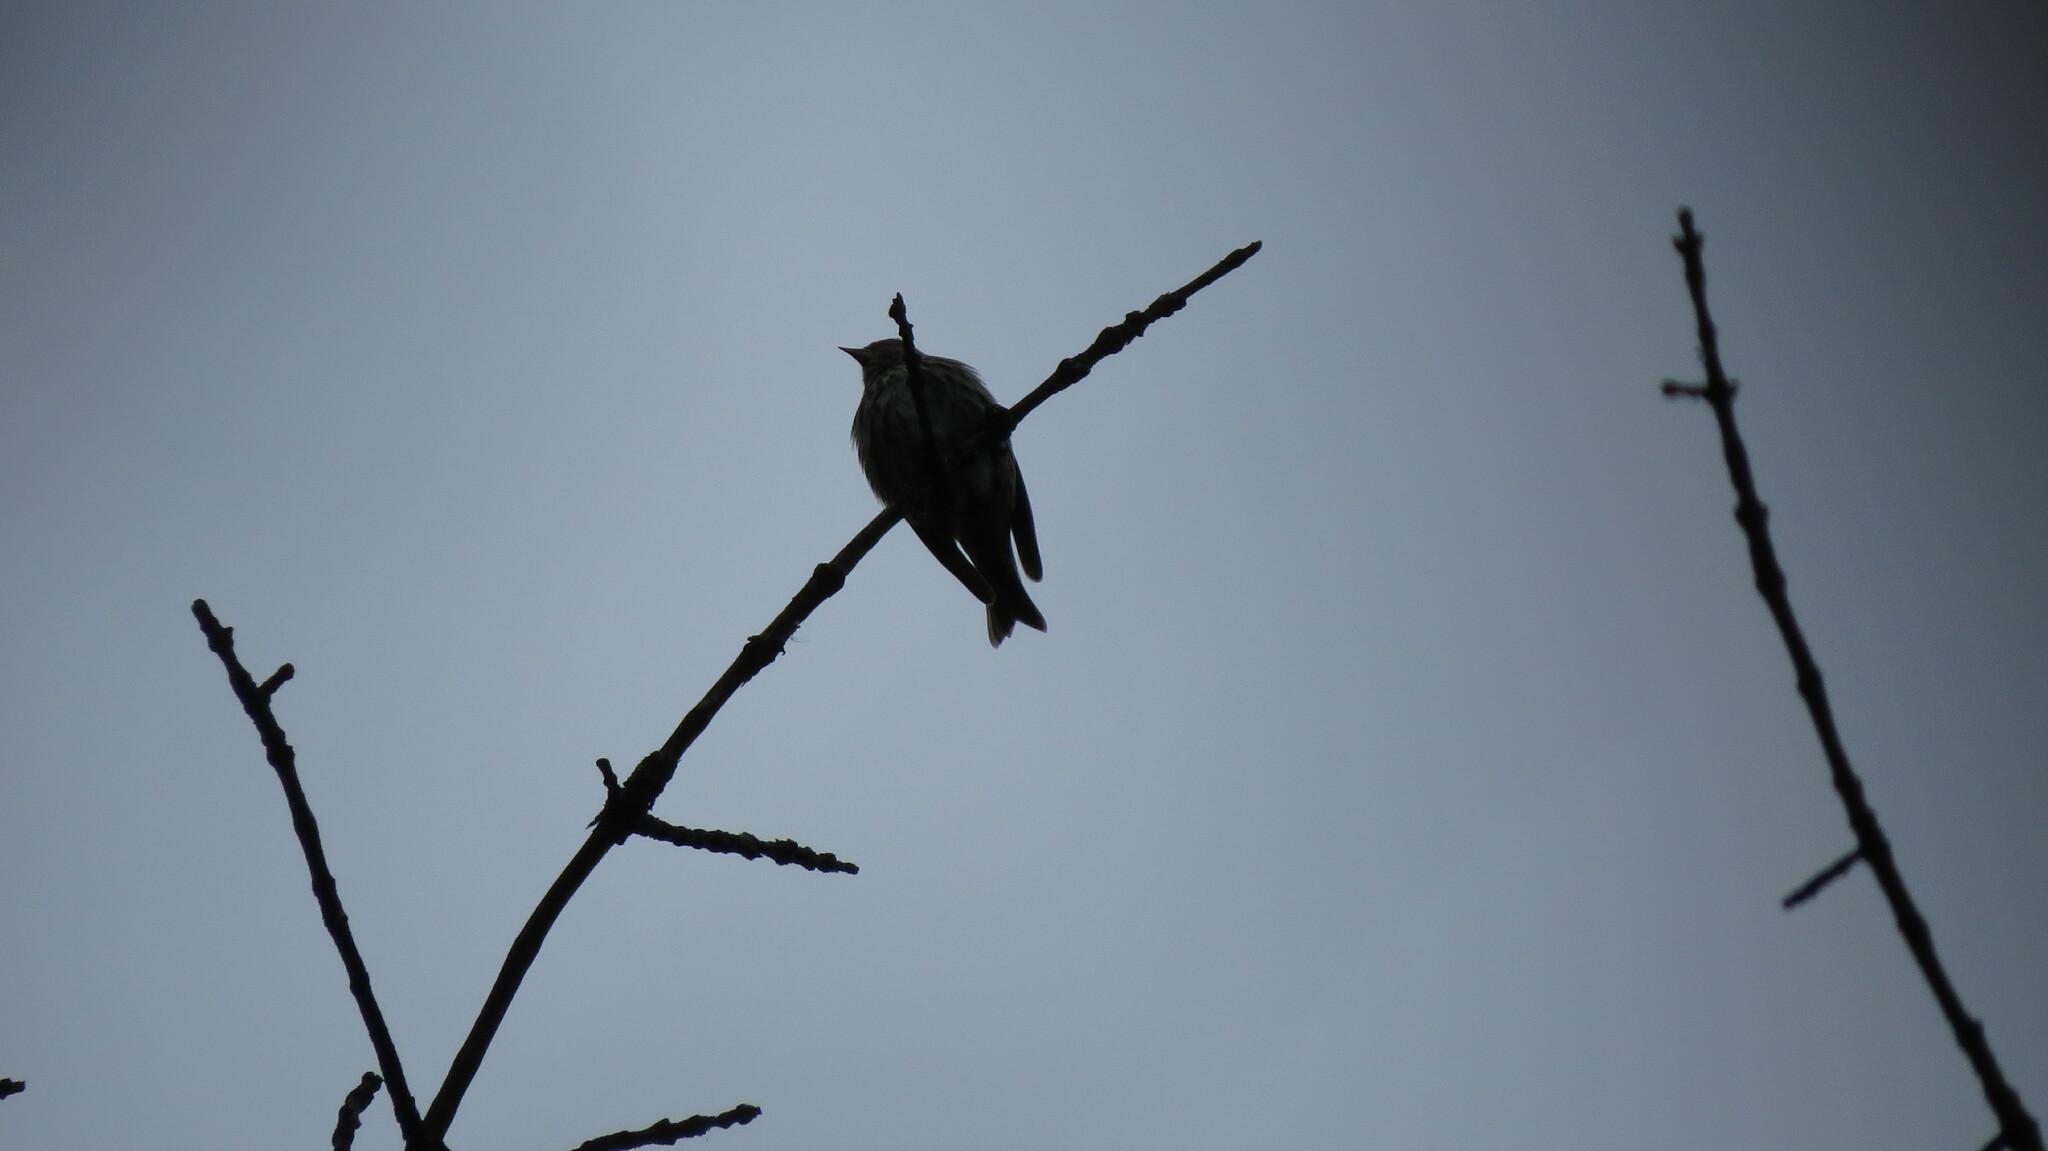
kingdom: Animalia
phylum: Chordata
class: Aves
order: Passeriformes
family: Fringillidae
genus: Spinus
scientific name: Spinus pinus
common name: Pine siskin
